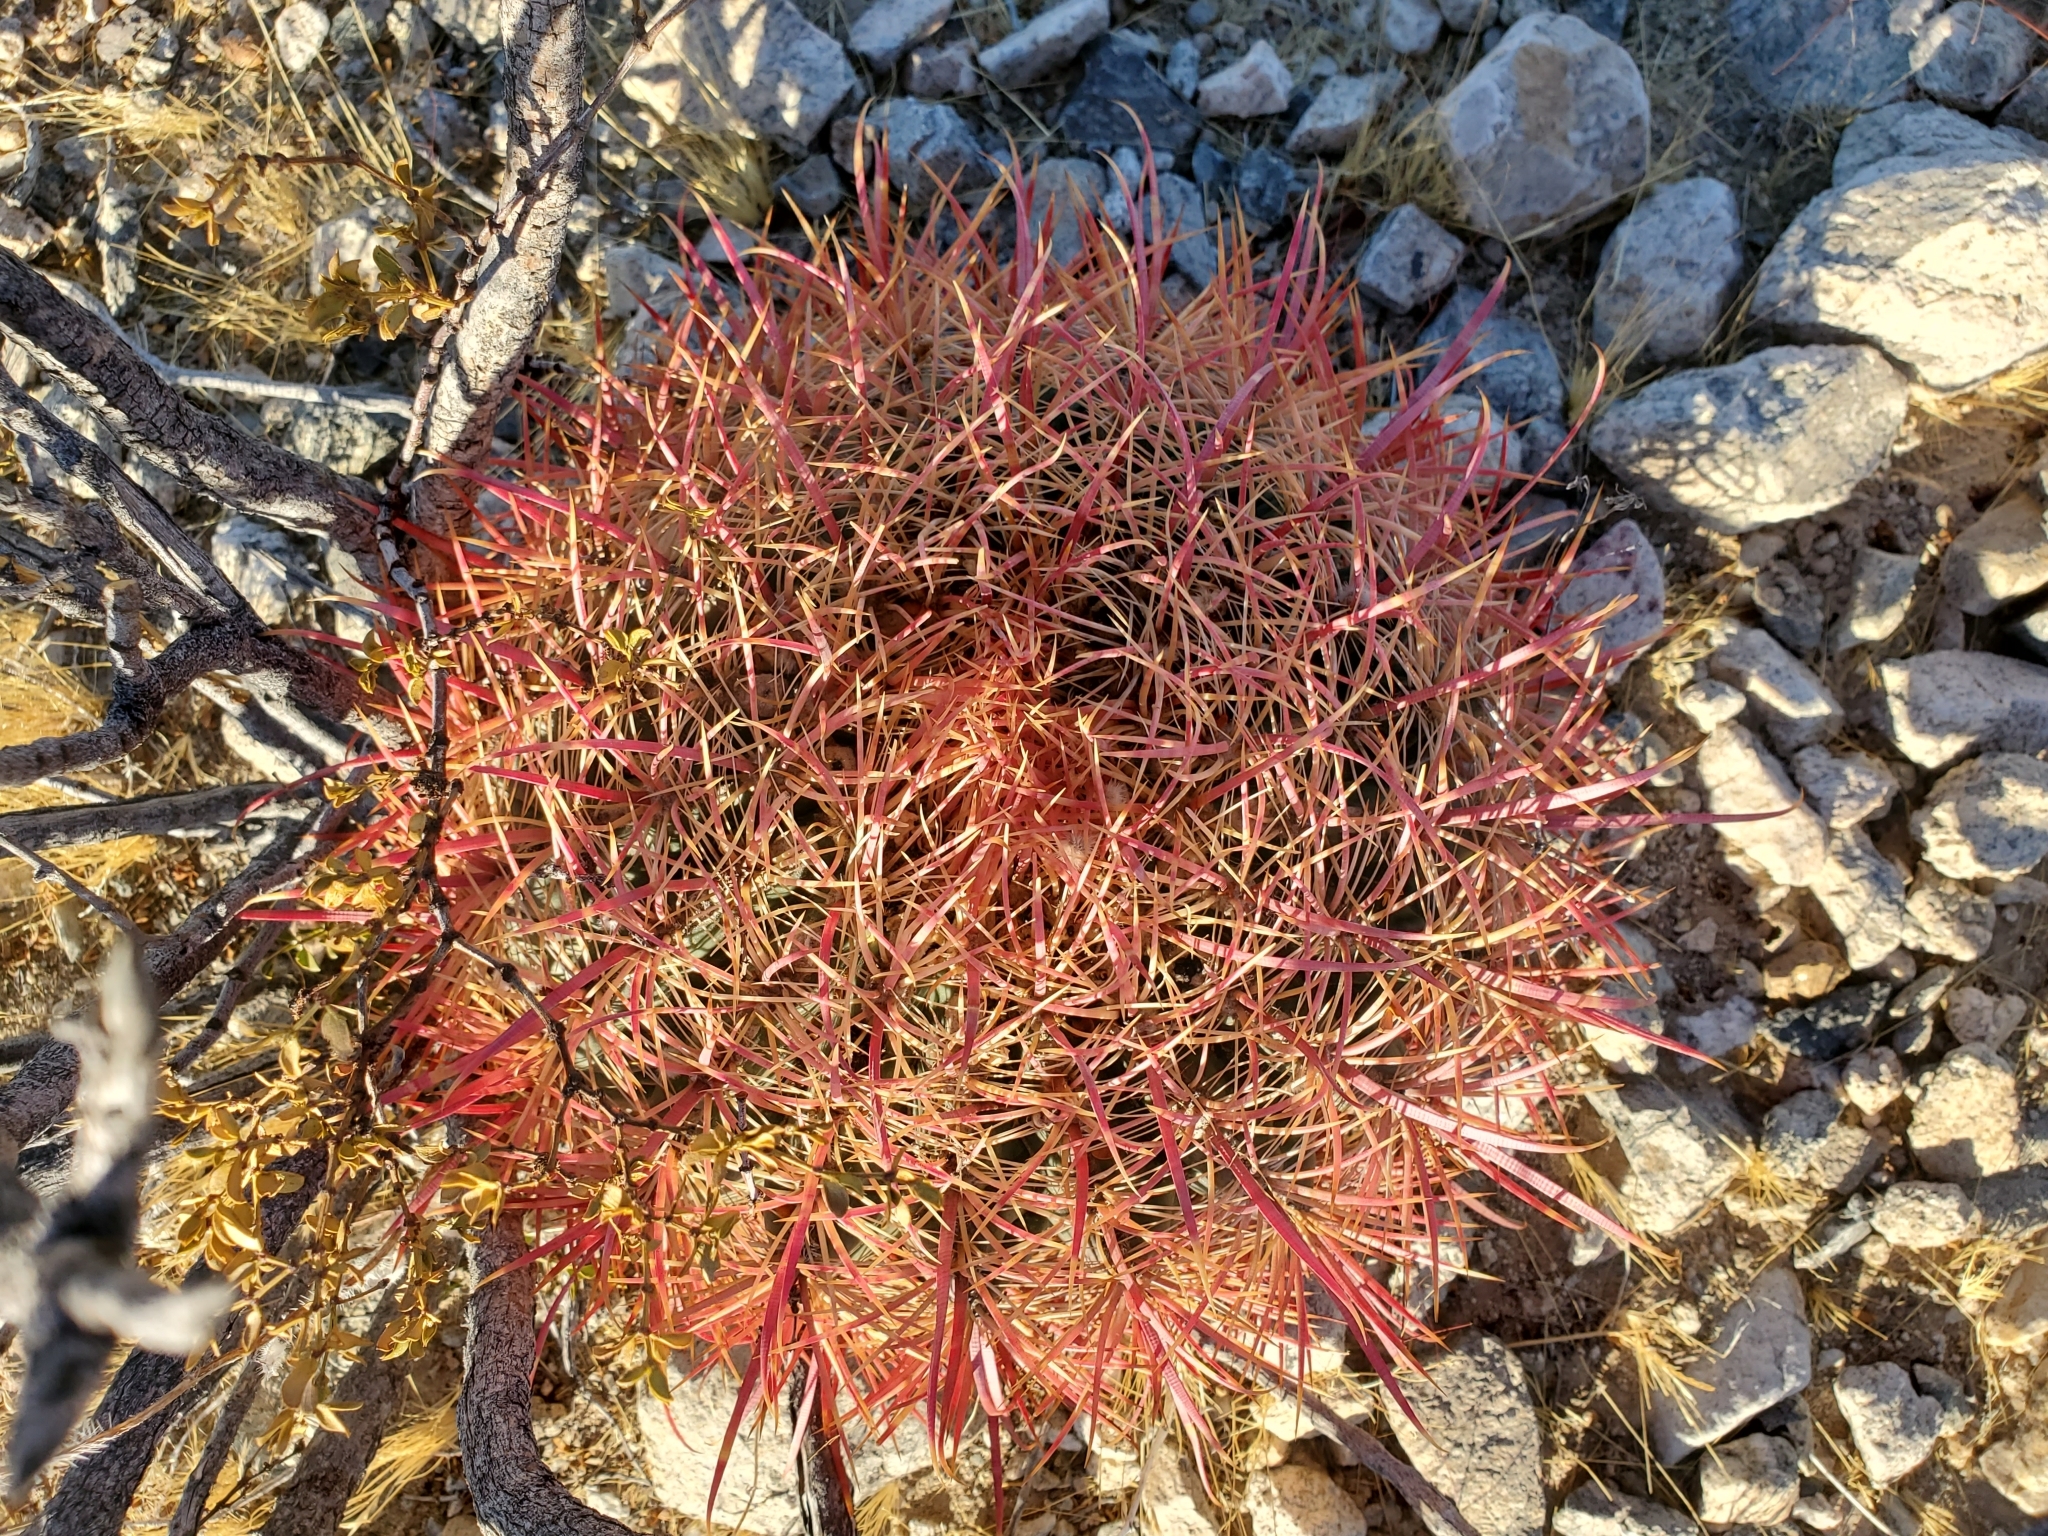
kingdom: Plantae
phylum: Tracheophyta
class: Magnoliopsida
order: Caryophyllales
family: Cactaceae
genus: Ferocactus
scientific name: Ferocactus cylindraceus
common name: California barrel cactus
